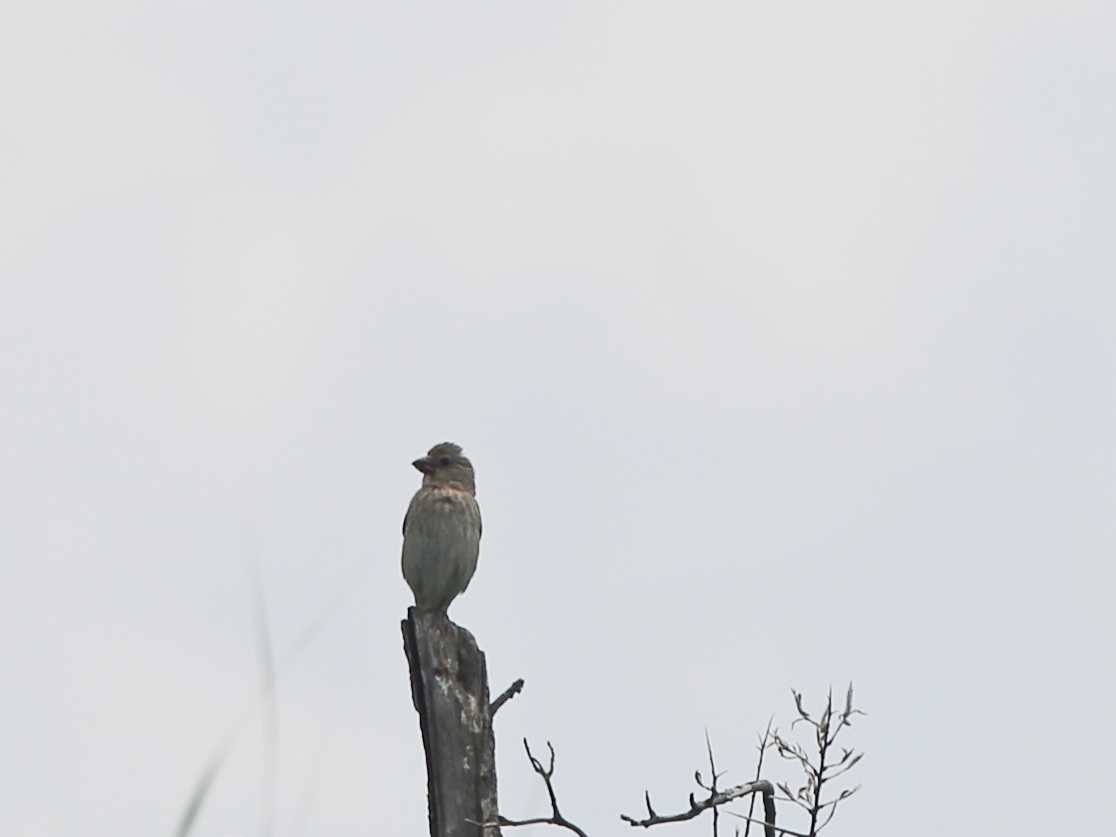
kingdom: Animalia
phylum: Chordata
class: Aves
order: Passeriformes
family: Fringillidae
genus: Carpodacus
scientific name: Carpodacus erythrinus
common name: Common rosefinch
